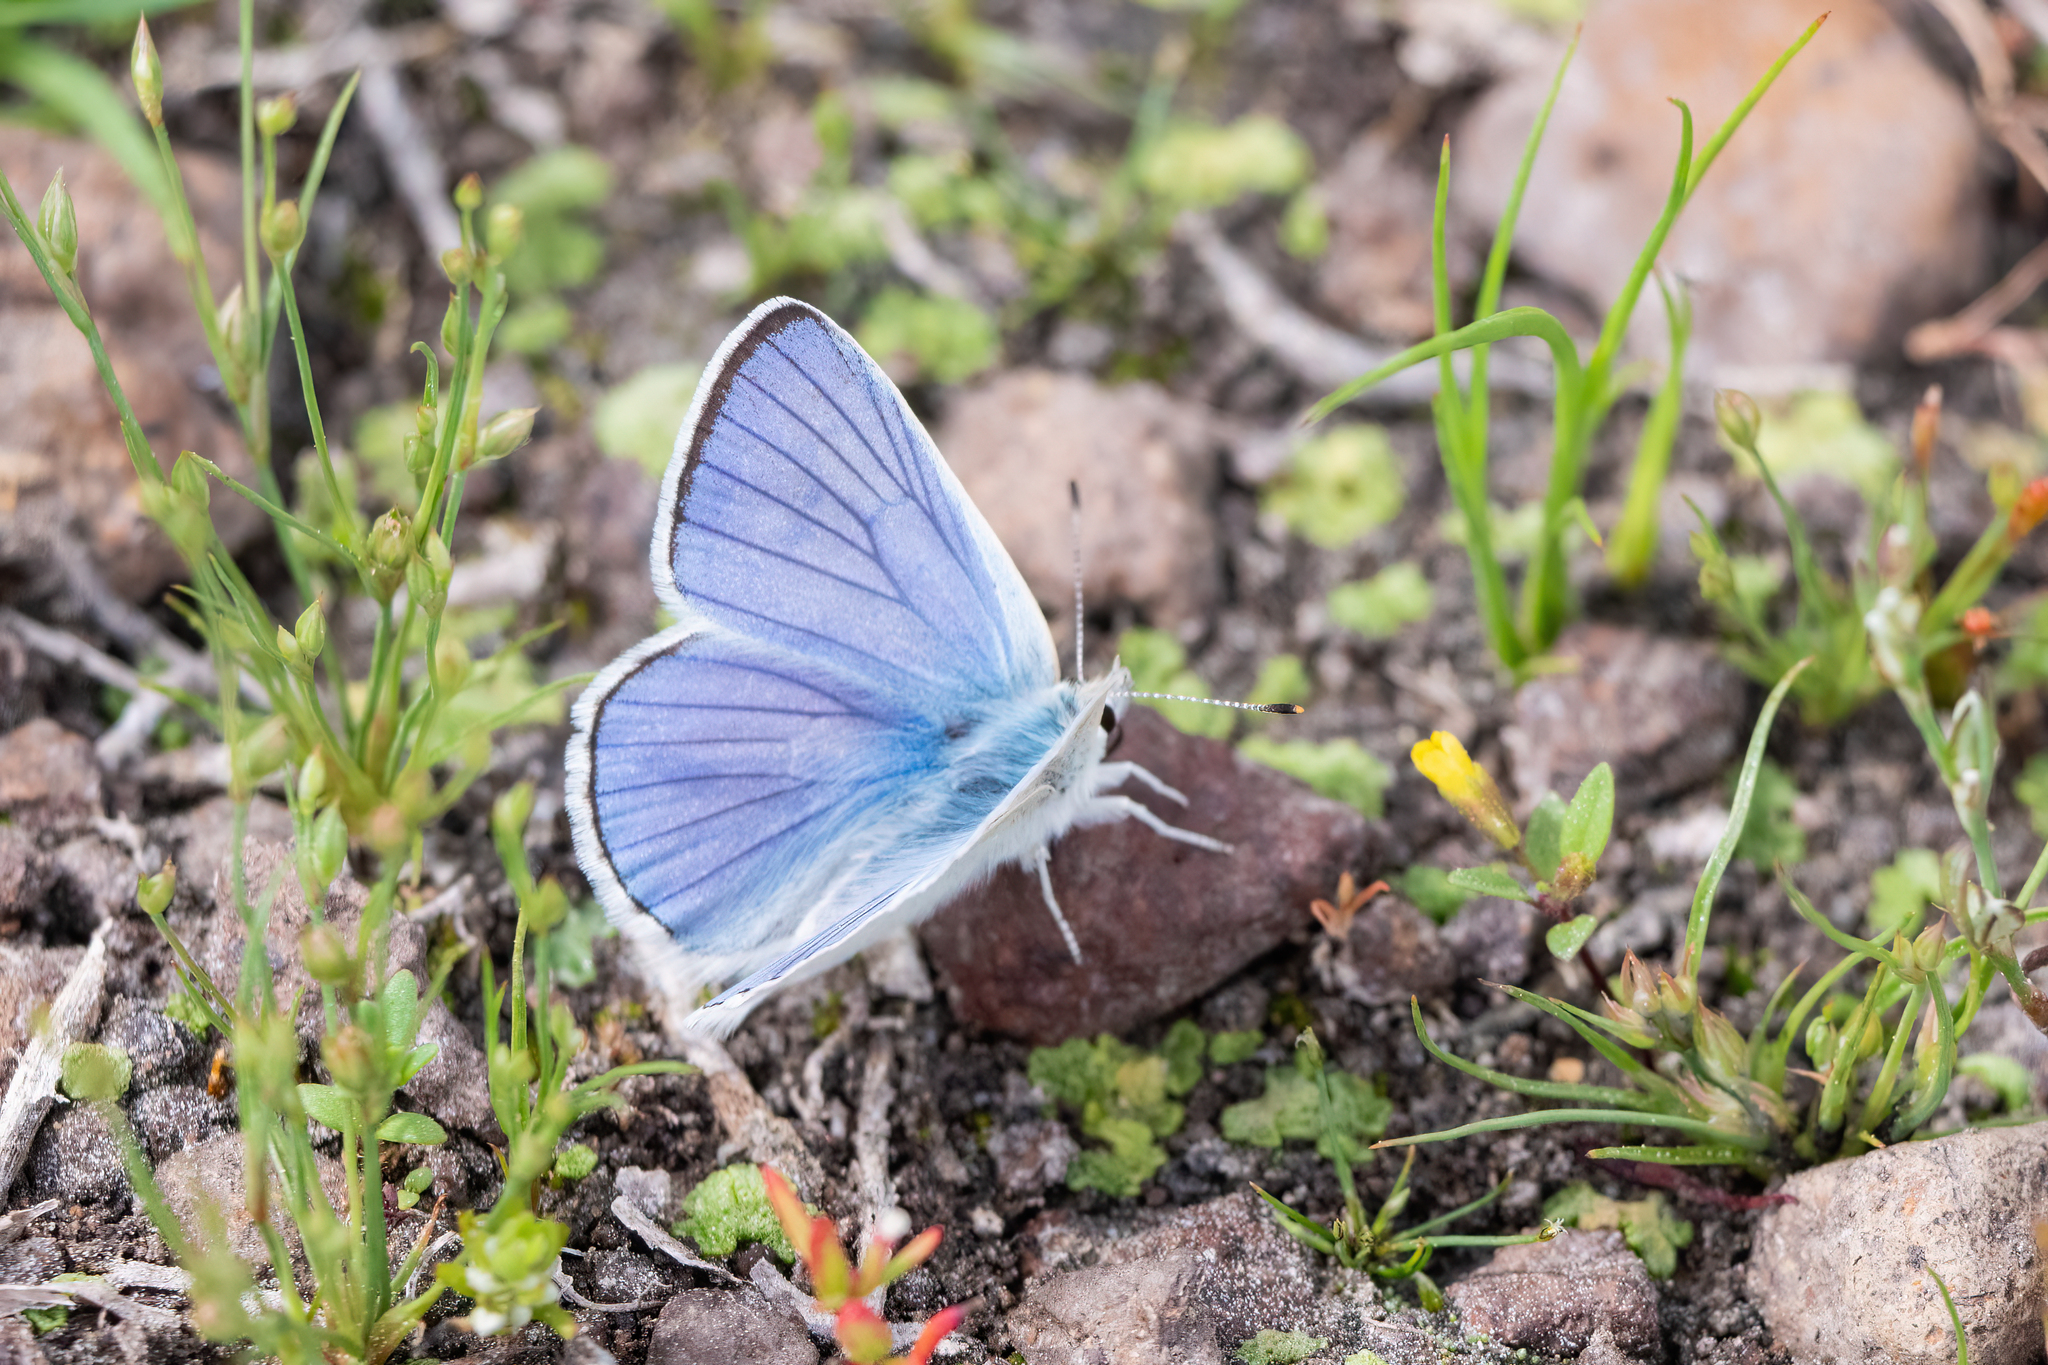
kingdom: Animalia
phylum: Arthropoda
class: Insecta
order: Lepidoptera
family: Lycaenidae
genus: Tharsalea
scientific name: Tharsalea heteronea
